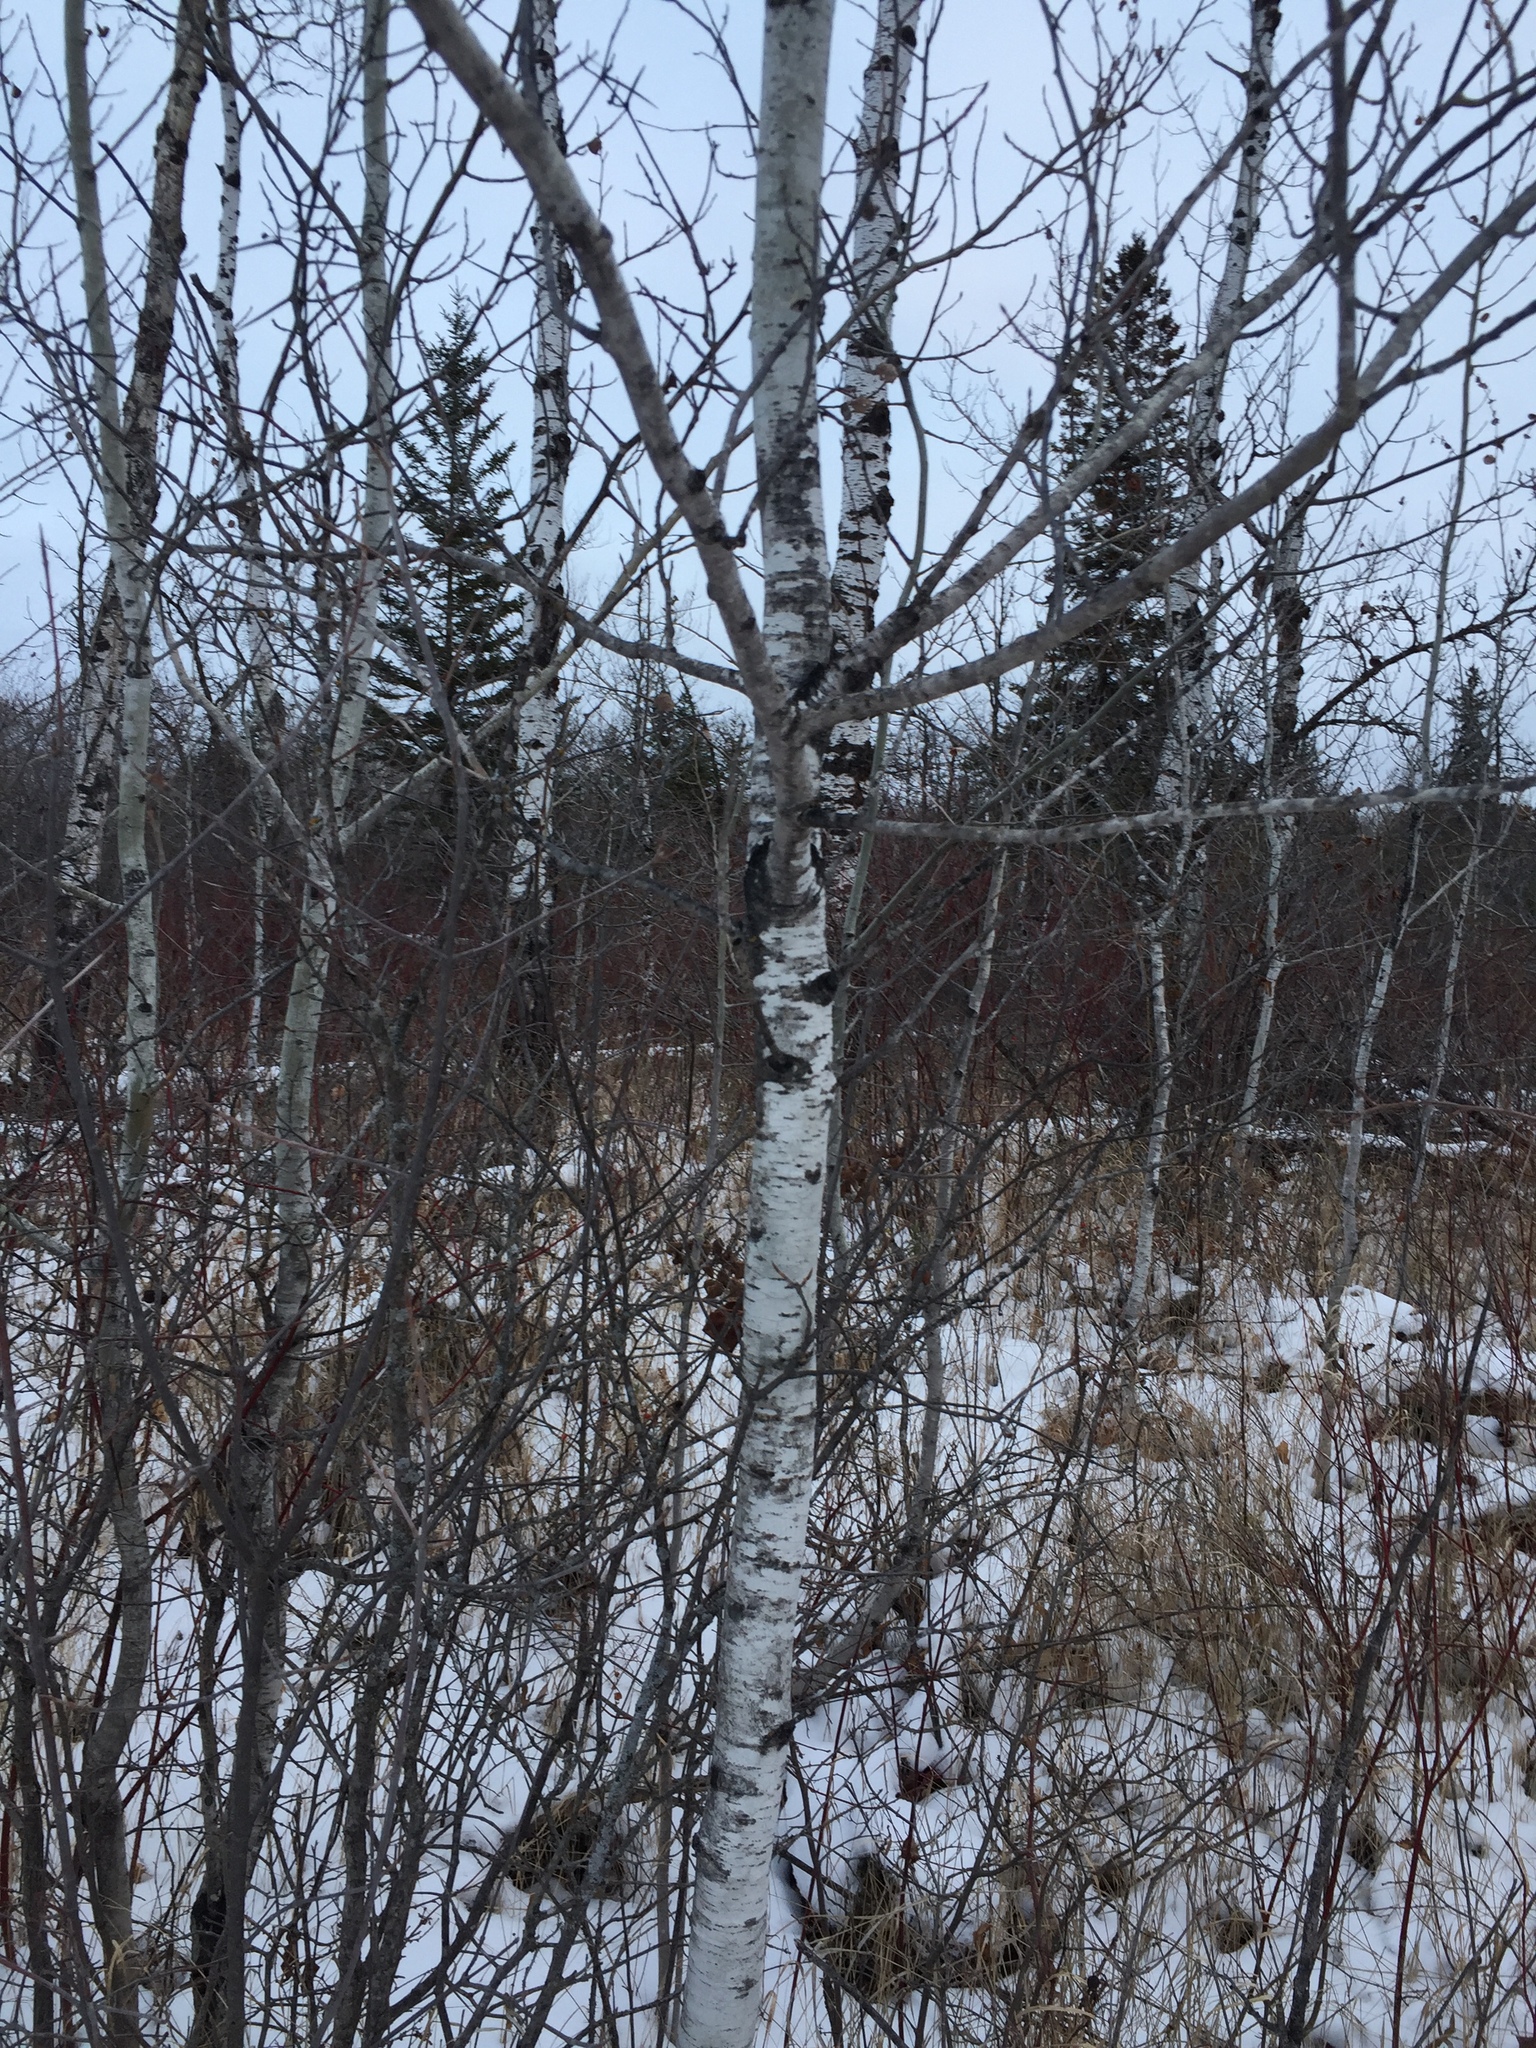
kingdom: Plantae
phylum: Tracheophyta
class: Magnoliopsida
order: Malpighiales
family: Salicaceae
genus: Populus
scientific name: Populus tremuloides
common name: Quaking aspen
